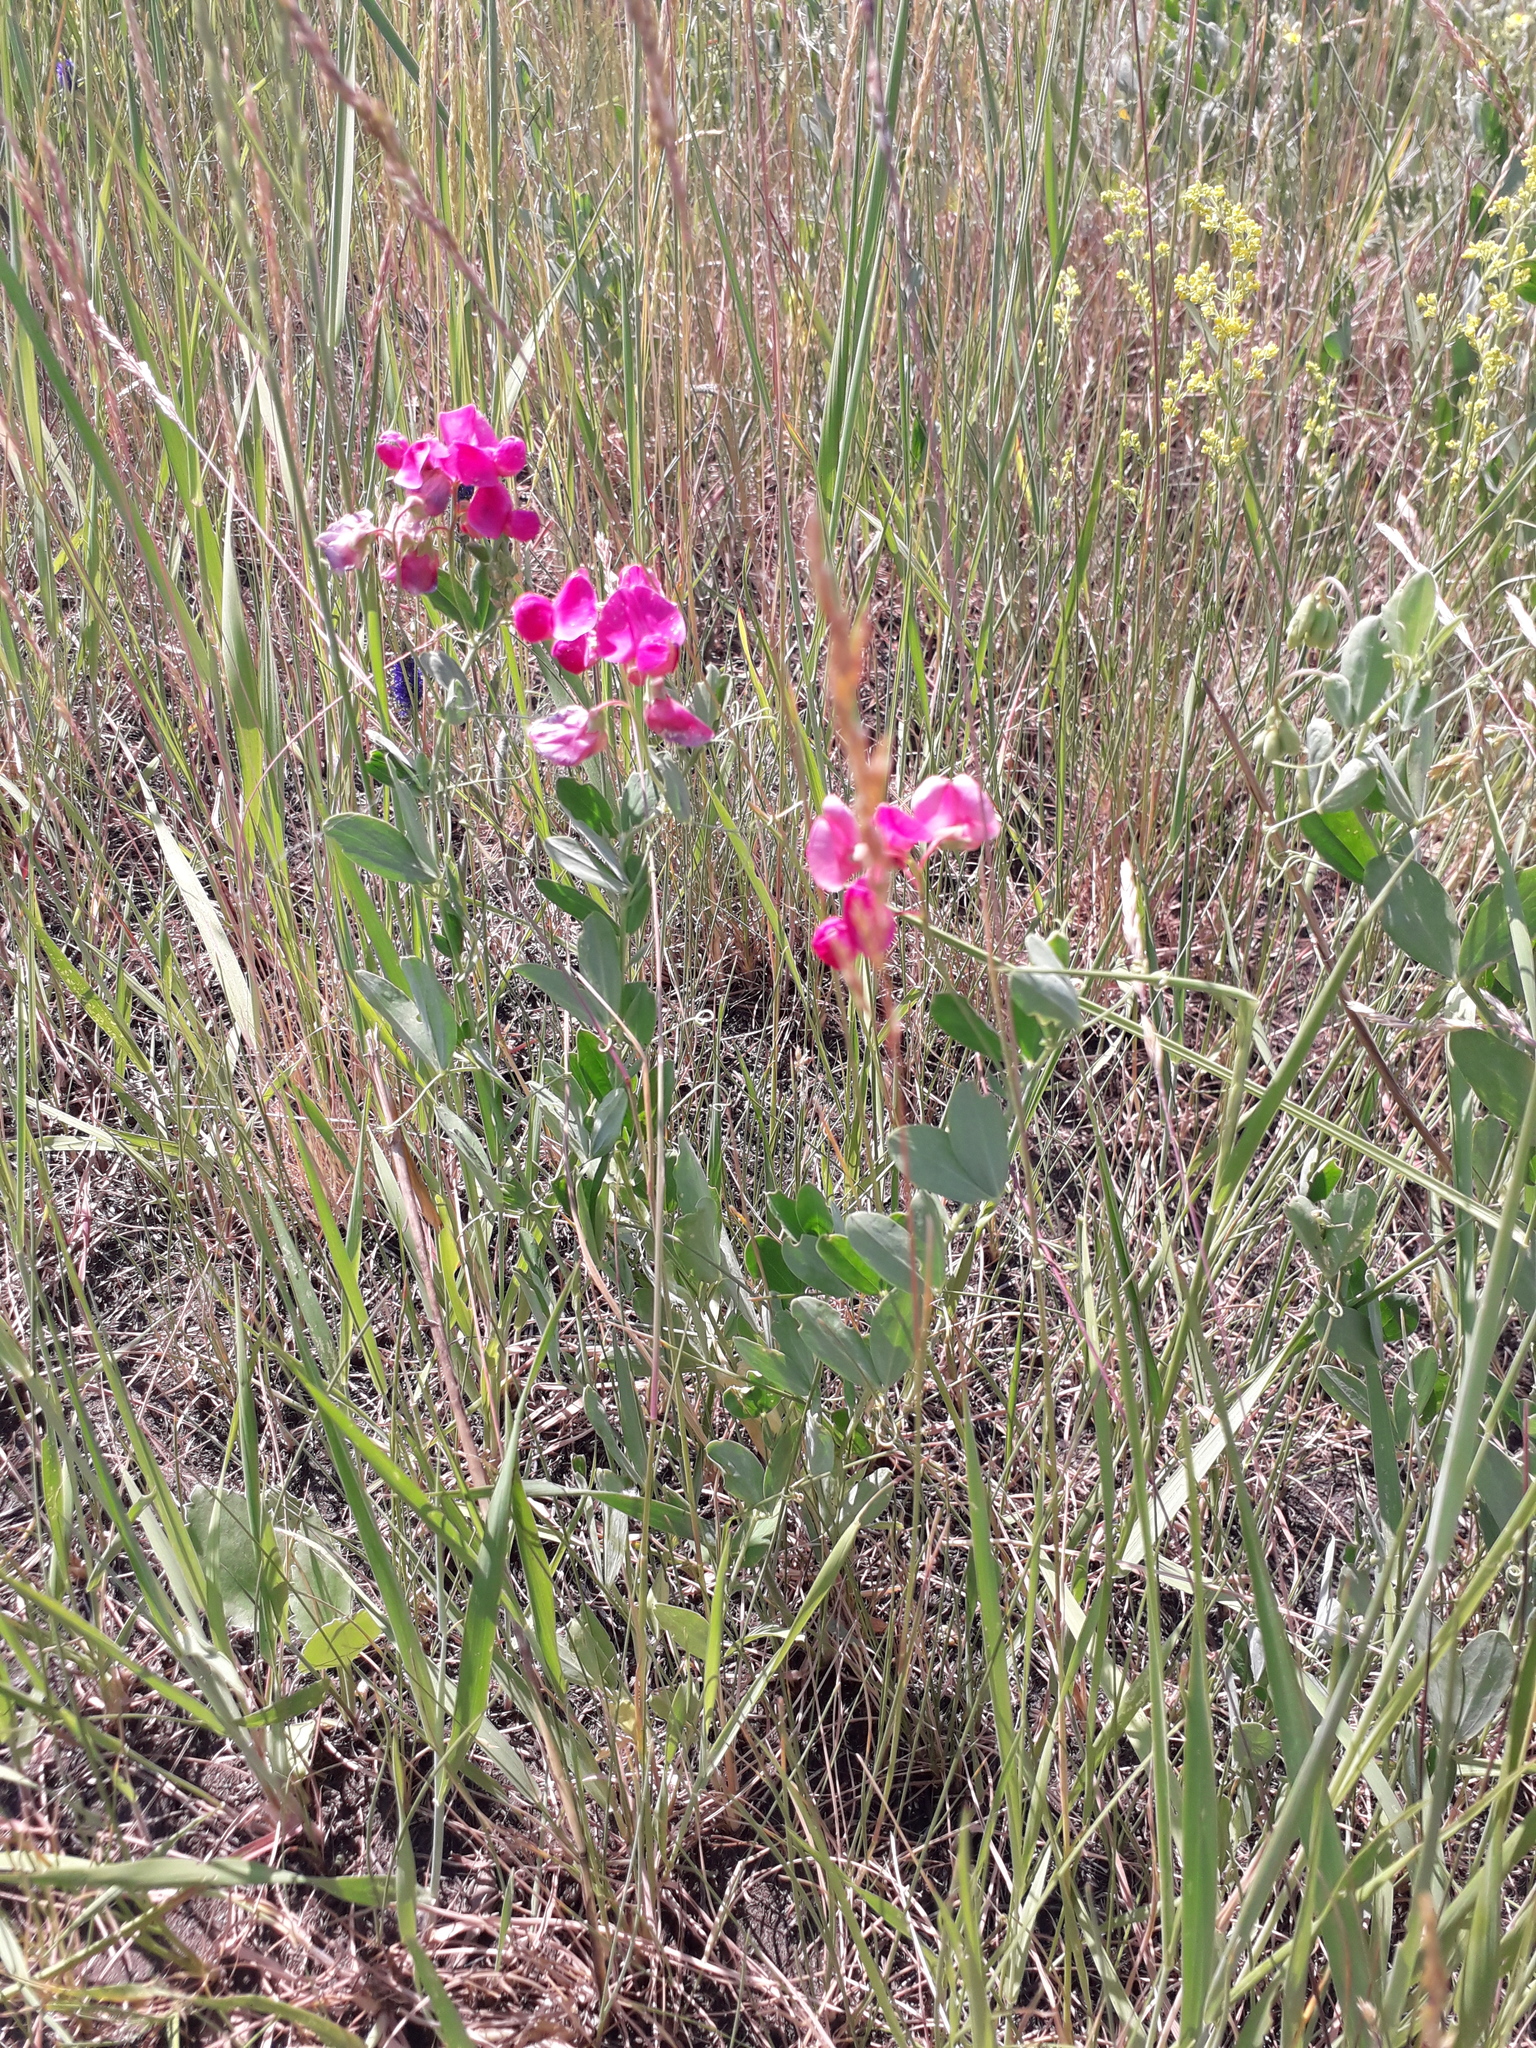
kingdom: Plantae
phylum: Tracheophyta
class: Magnoliopsida
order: Fabales
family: Fabaceae
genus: Lathyrus
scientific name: Lathyrus tuberosus
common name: Tuberous pea
